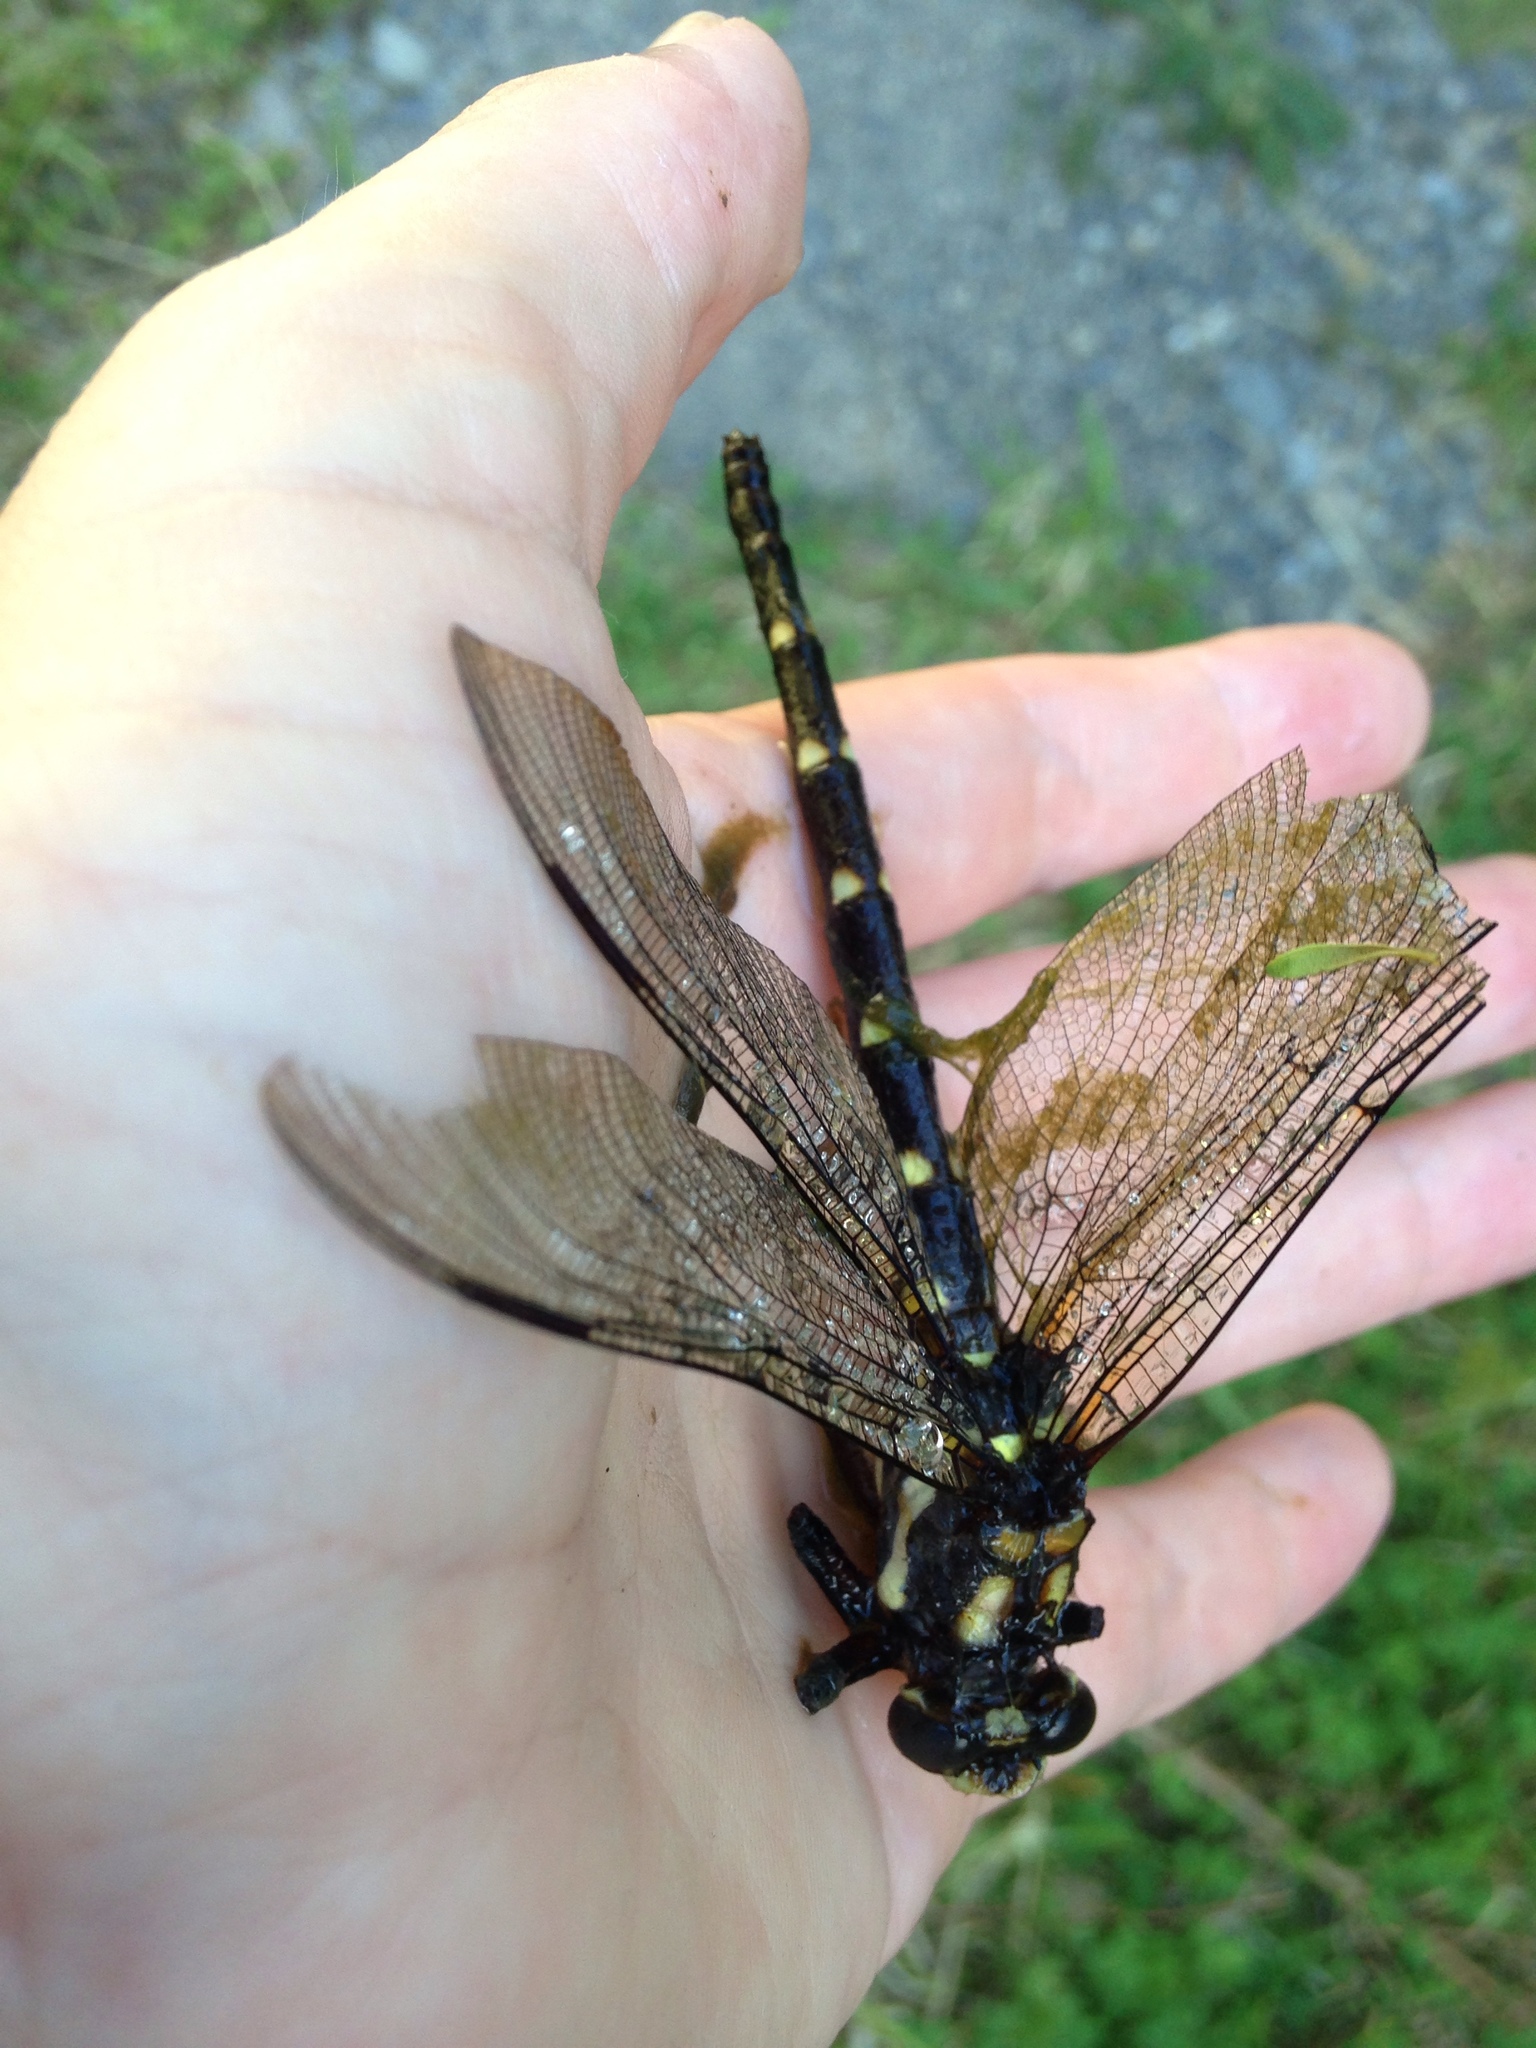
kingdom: Animalia
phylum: Arthropoda
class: Insecta
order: Odonata
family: Petaluridae
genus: Uropetala
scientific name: Uropetala carovei
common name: Bush giant dragonfly
